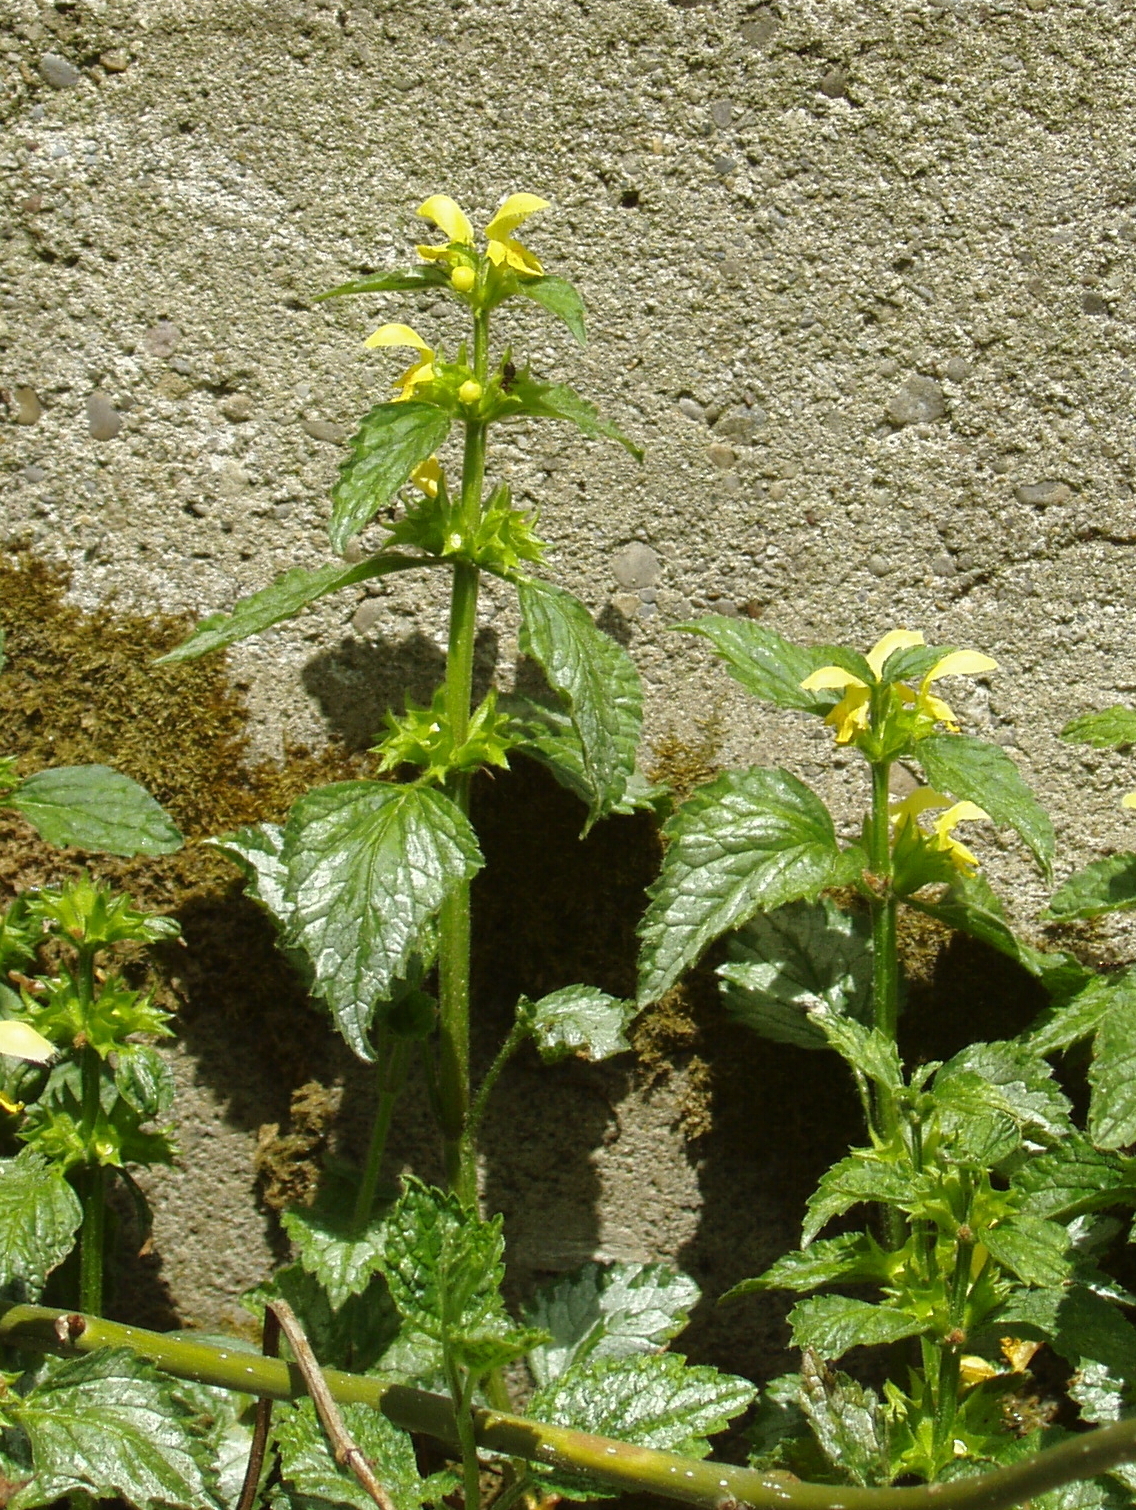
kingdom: Plantae
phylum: Tracheophyta
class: Magnoliopsida
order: Lamiales
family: Lamiaceae
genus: Lamium
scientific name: Lamium galeobdolon
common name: Yellow archangel
